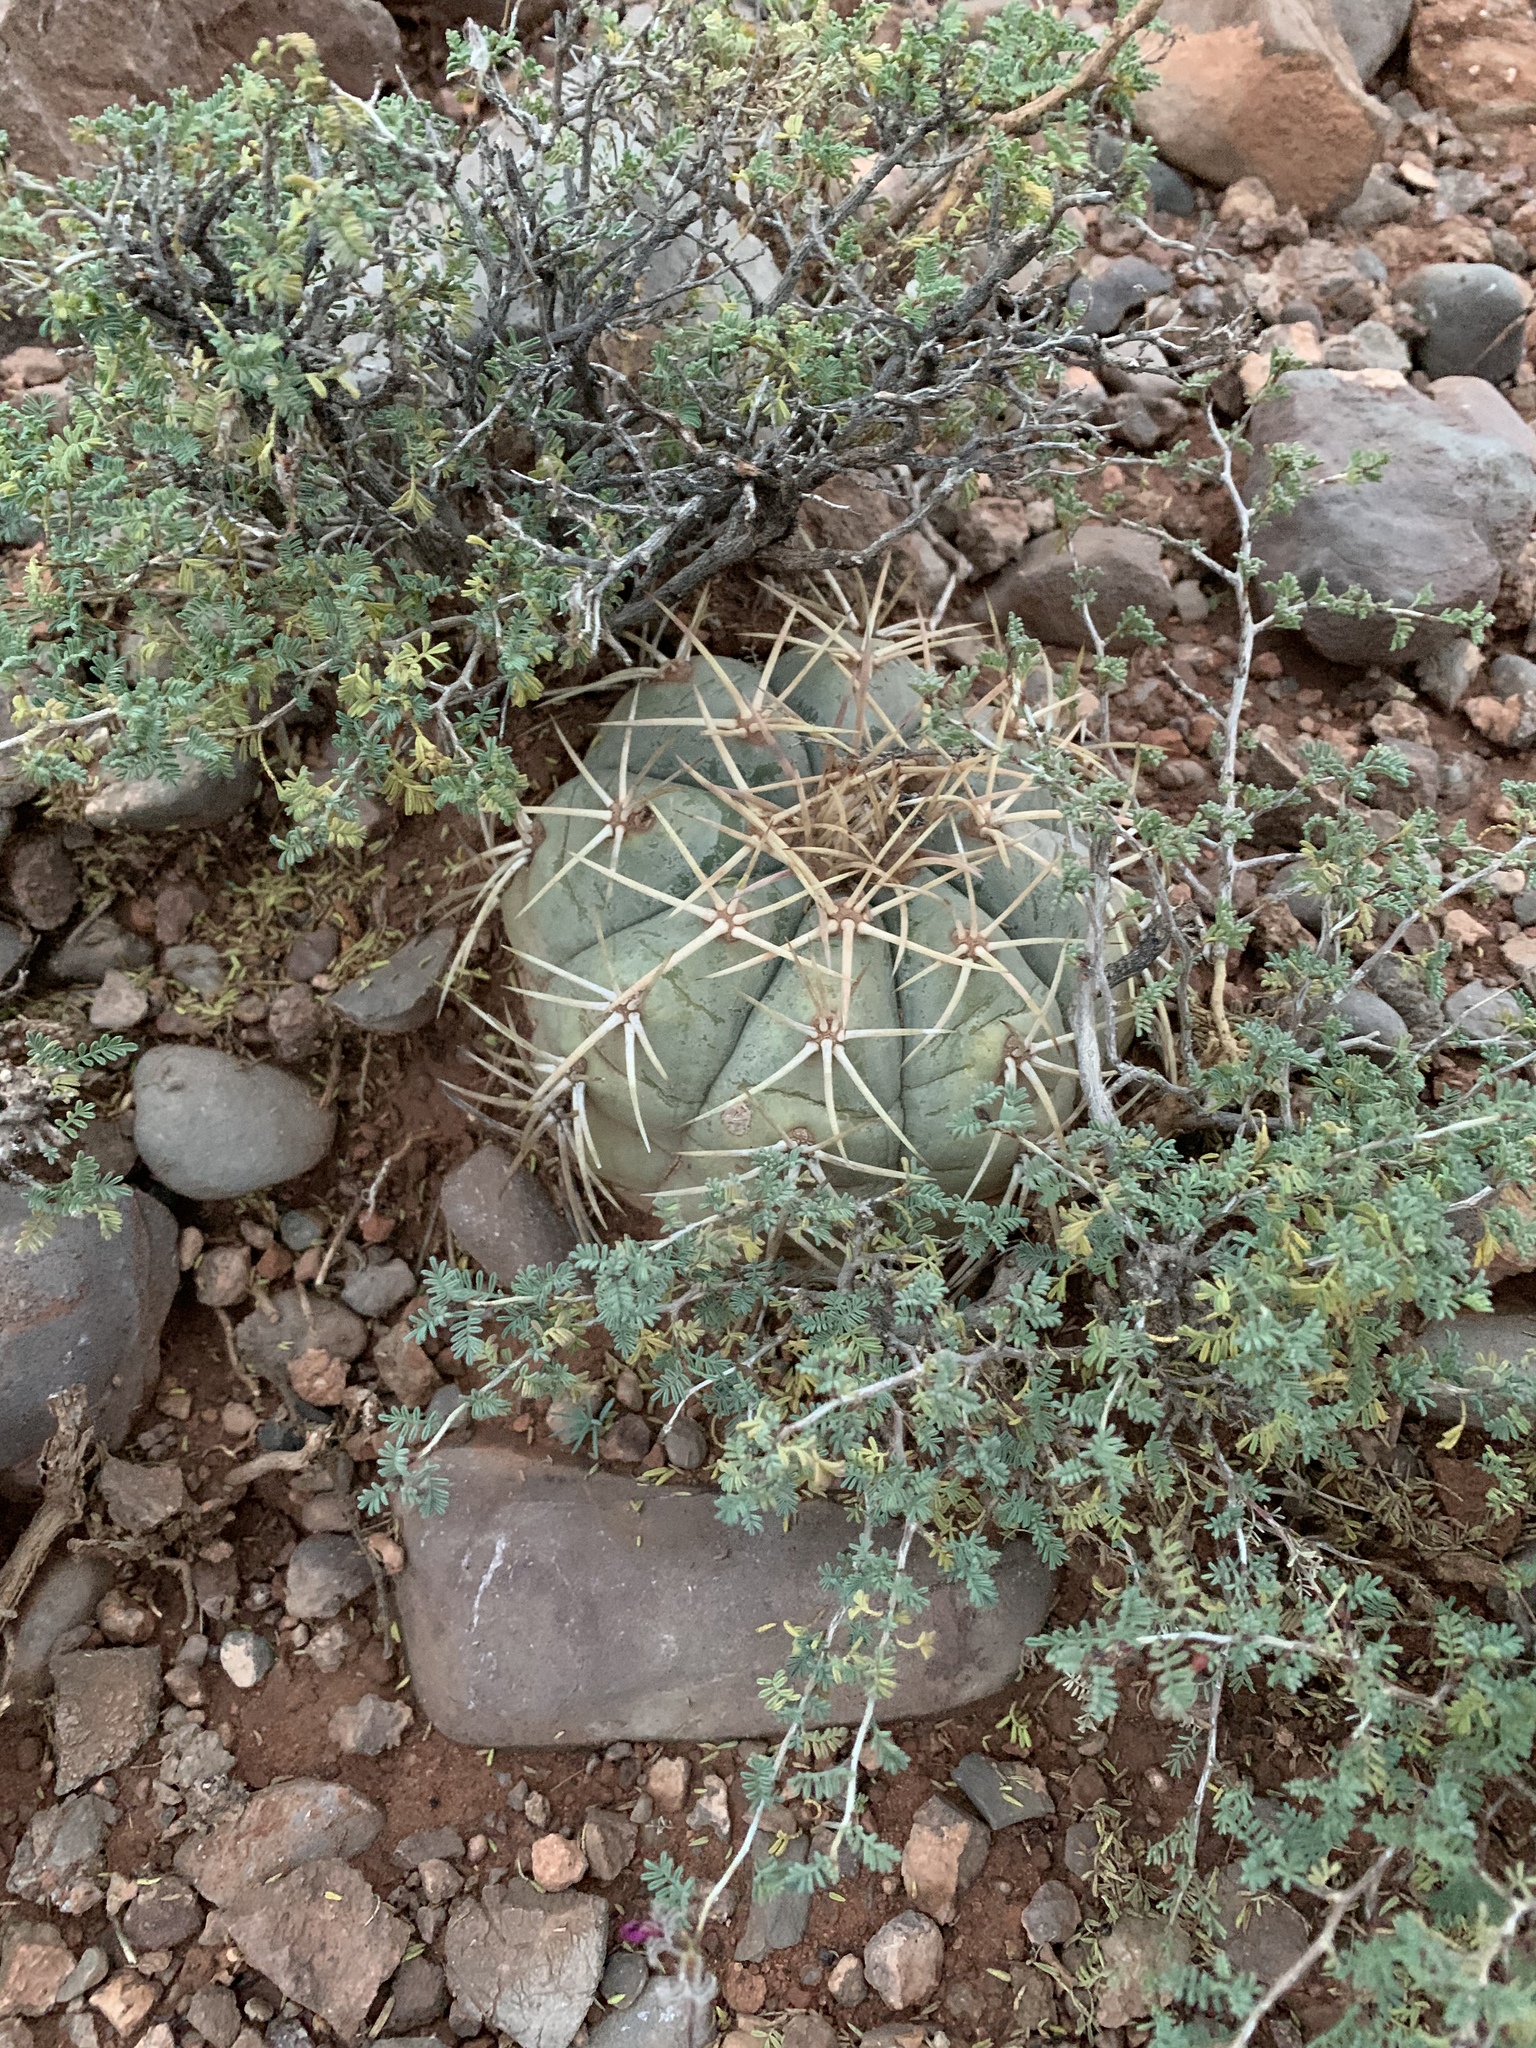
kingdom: Plantae
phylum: Tracheophyta
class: Magnoliopsida
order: Caryophyllales
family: Cactaceae
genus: Echinocactus
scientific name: Echinocactus horizonthalonius
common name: Devilshead
